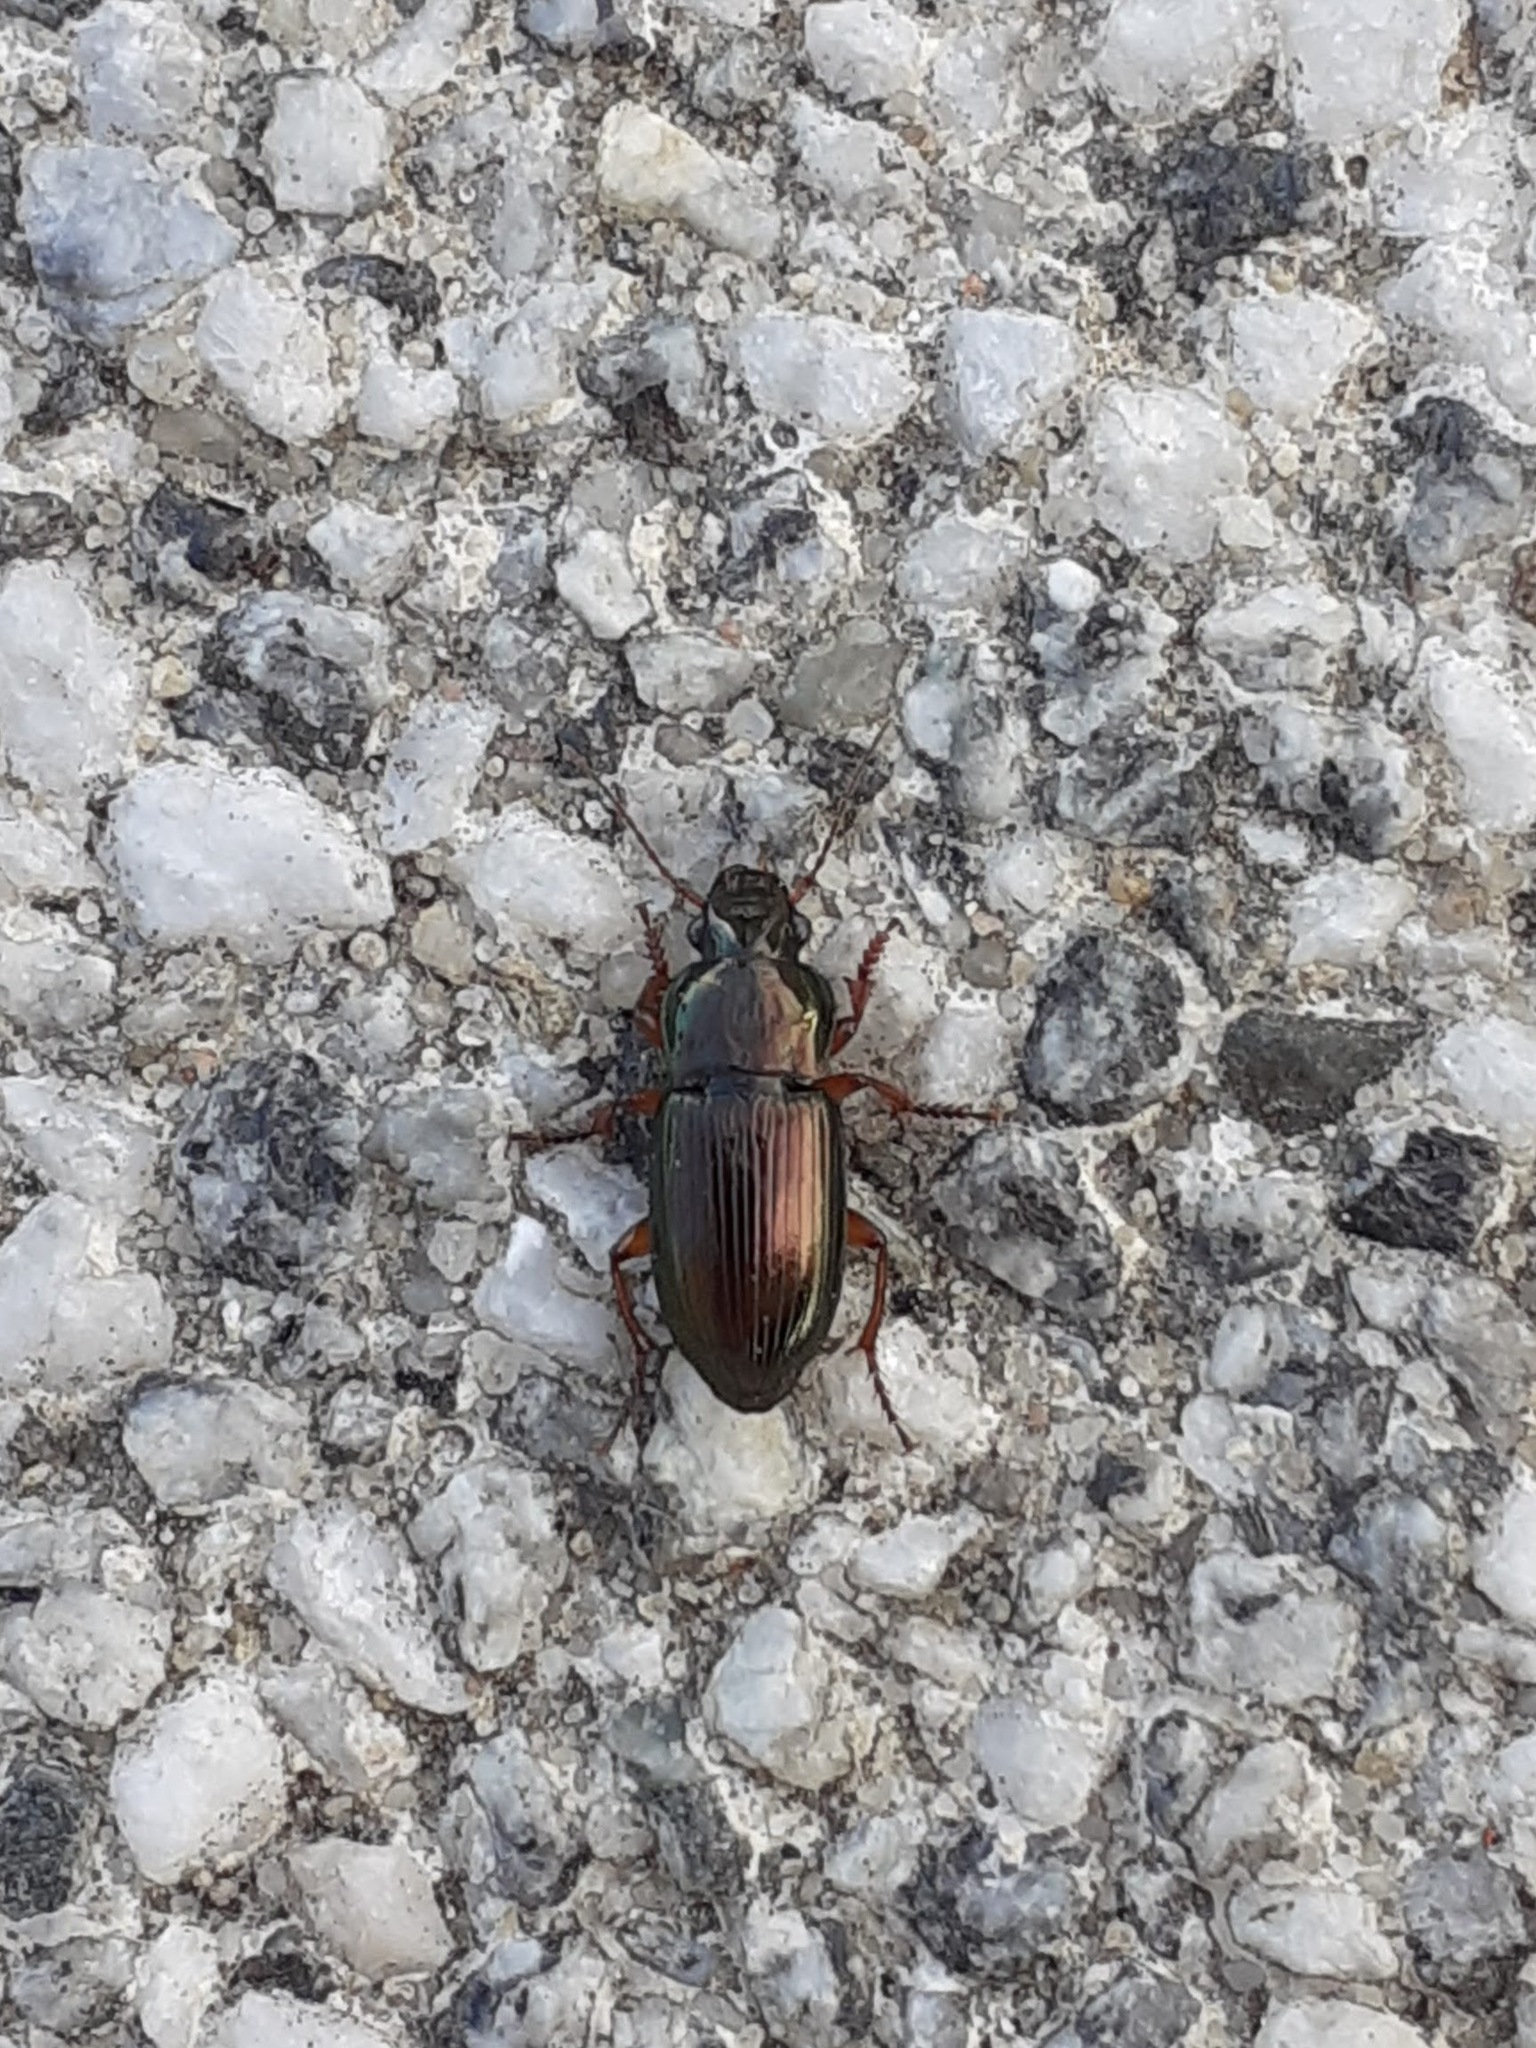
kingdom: Animalia
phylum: Arthropoda
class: Insecta
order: Coleoptera
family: Carabidae
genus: Harpalus
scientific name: Harpalus affinis
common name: Polychrome harp ground beetle
